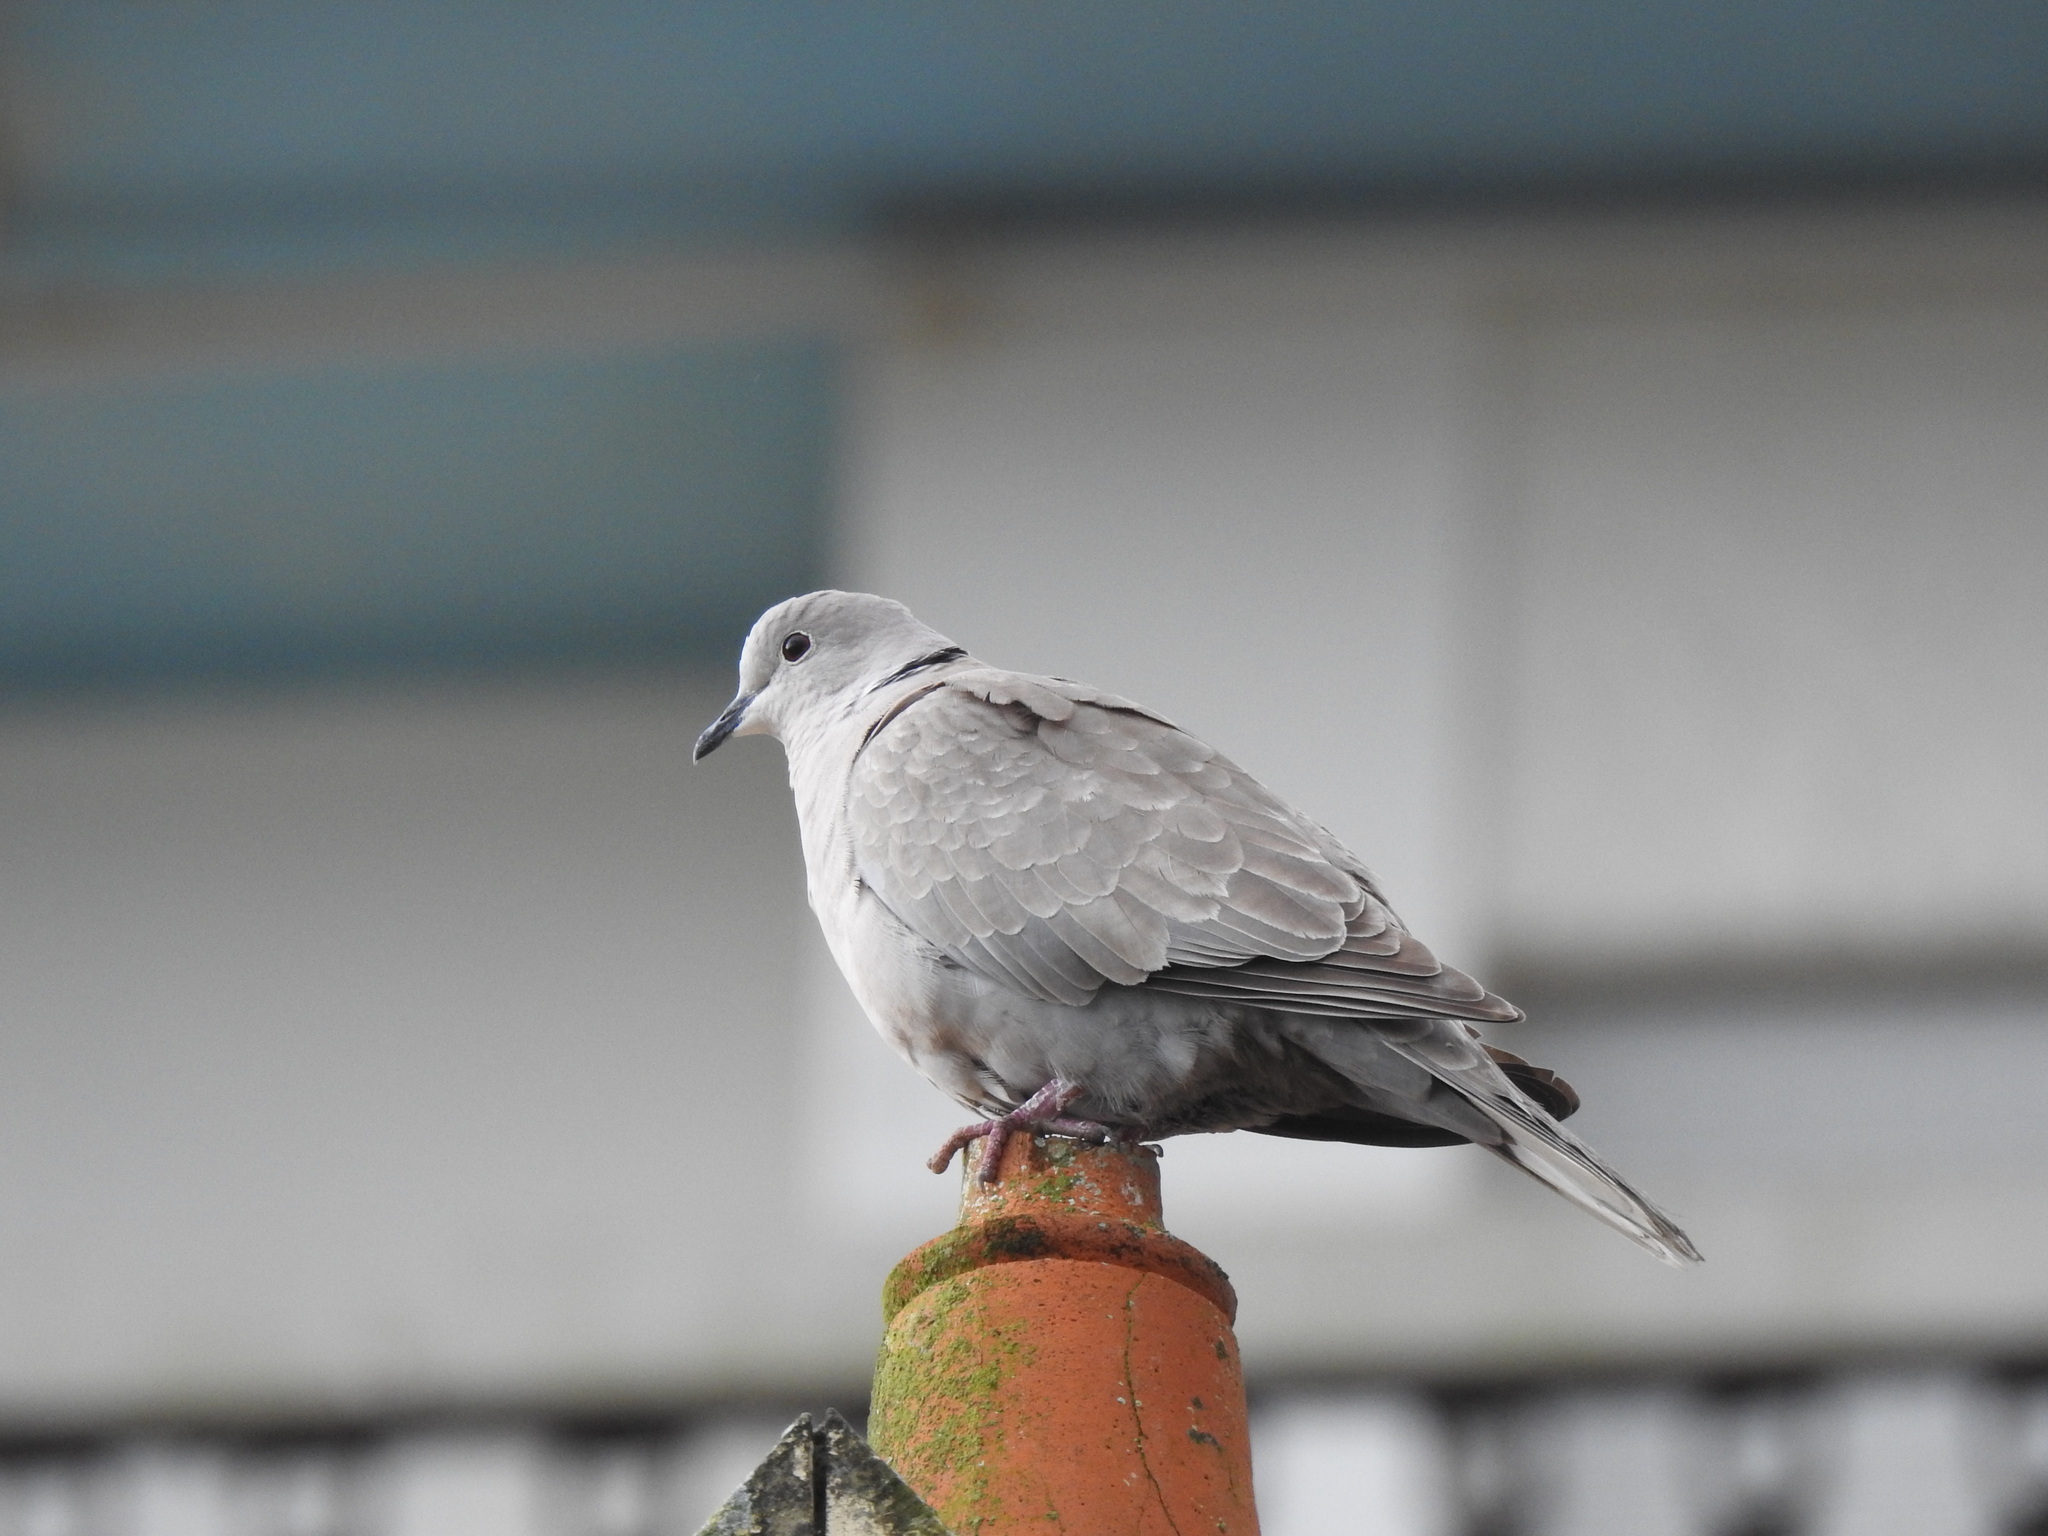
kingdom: Animalia
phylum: Chordata
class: Aves
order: Columbiformes
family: Columbidae
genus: Streptopelia
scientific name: Streptopelia decaocto
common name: Eurasian collared dove
